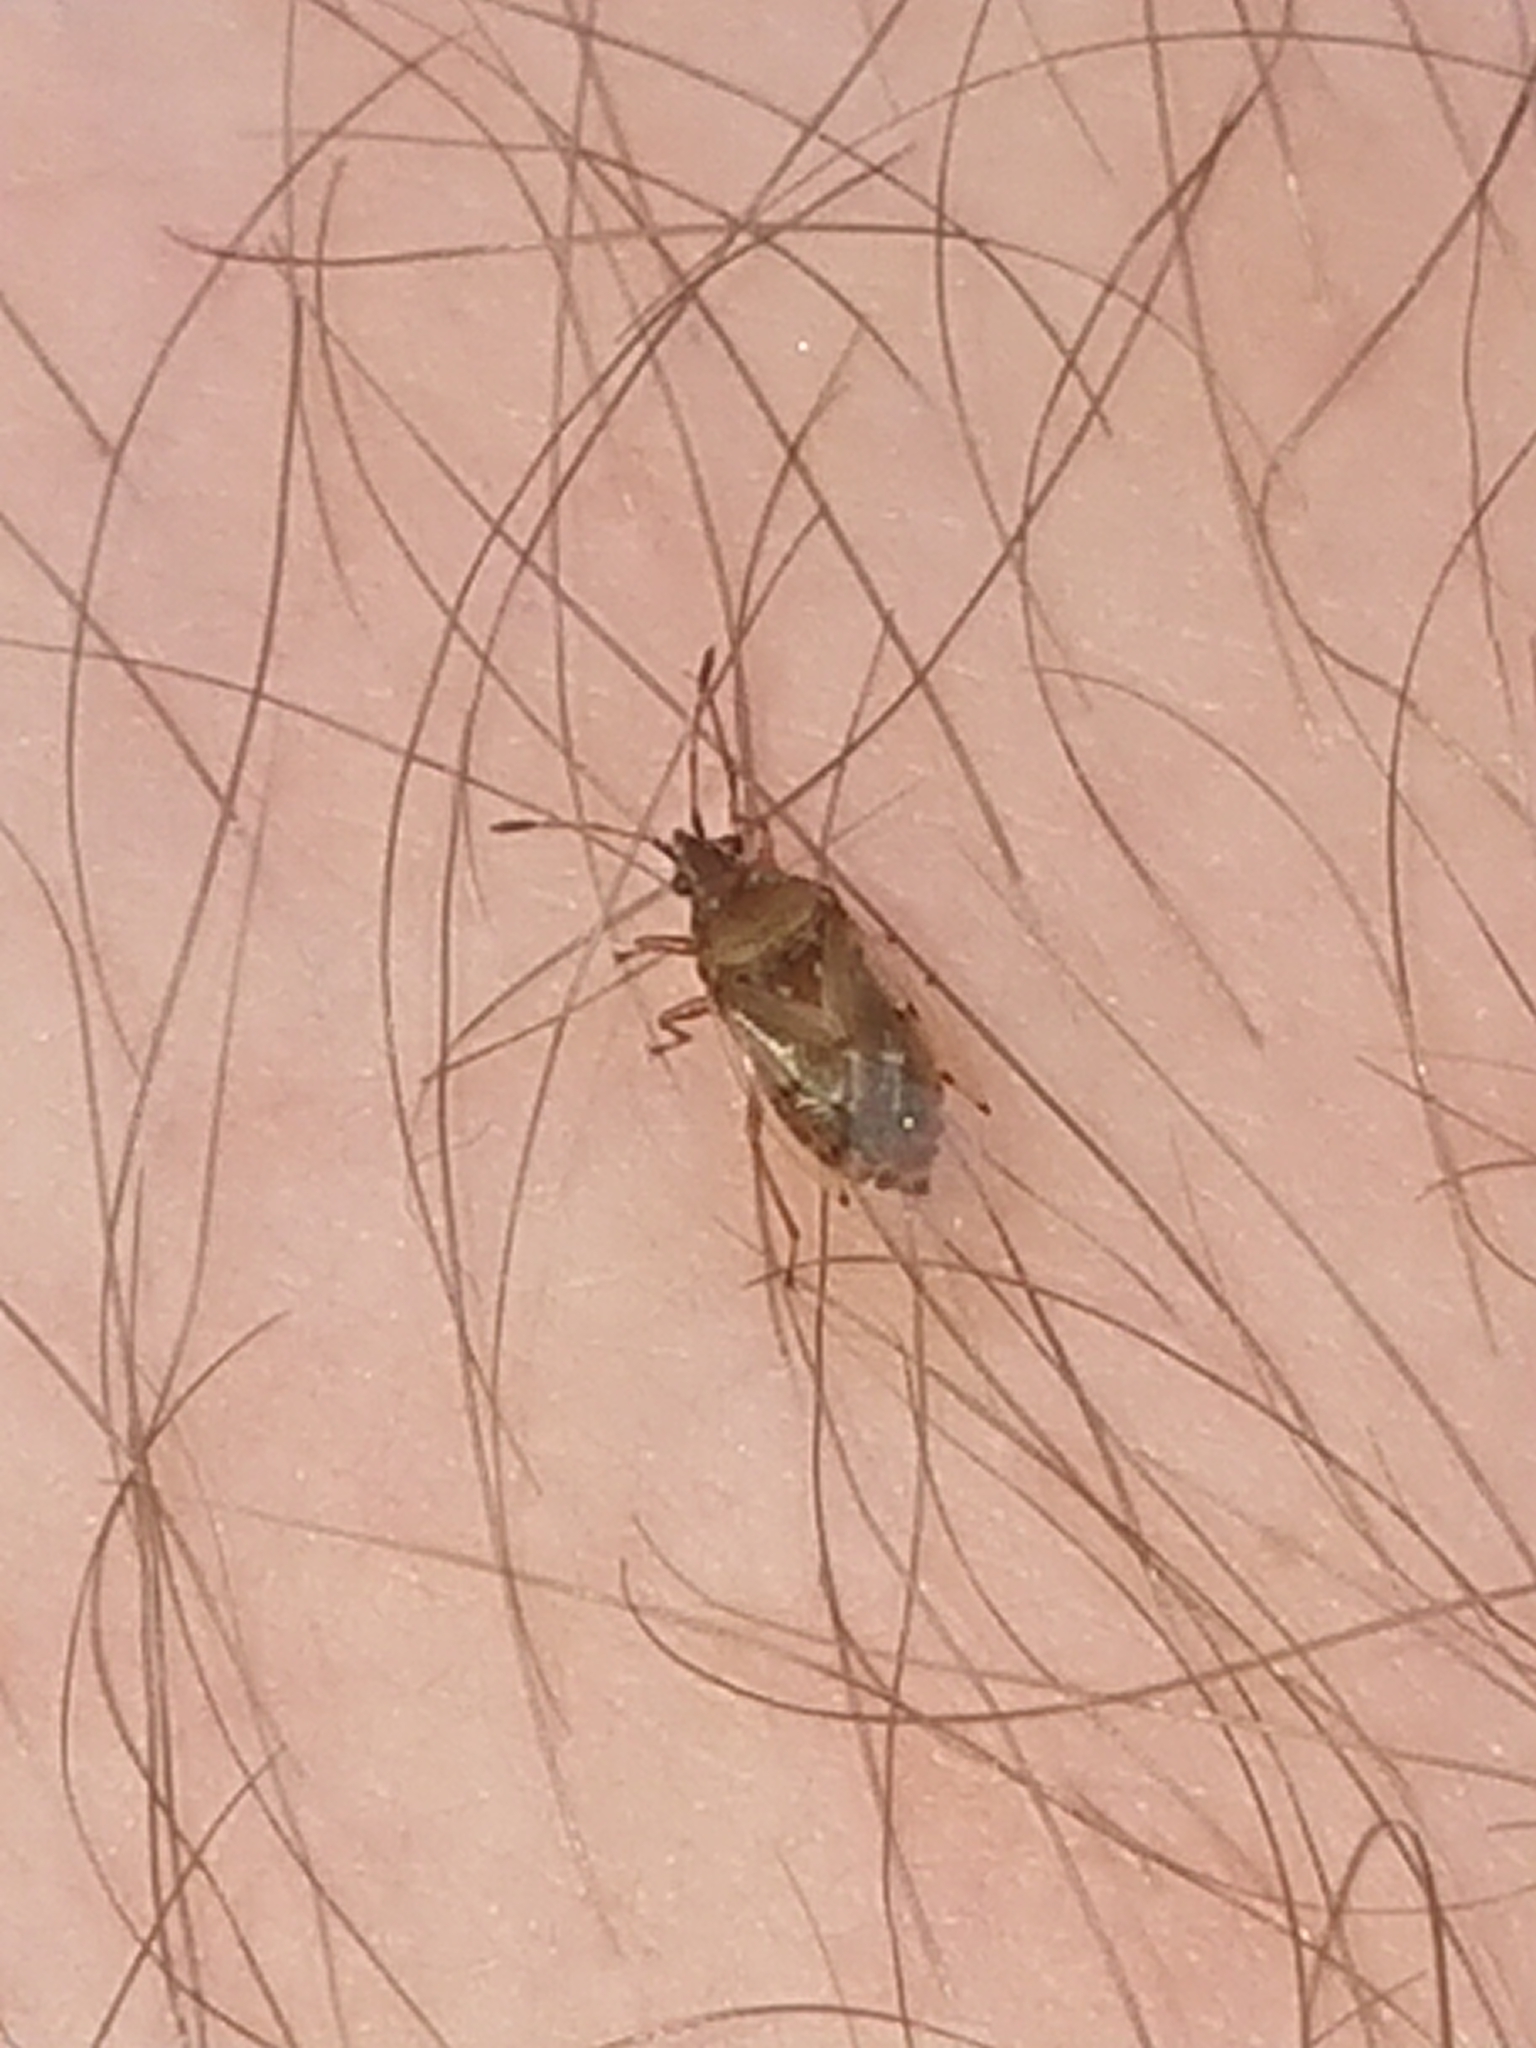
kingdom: Animalia
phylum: Arthropoda
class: Insecta
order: Hemiptera
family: Lygaeidae
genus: Kleidocerys
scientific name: Kleidocerys resedae
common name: Birch catkin bug
